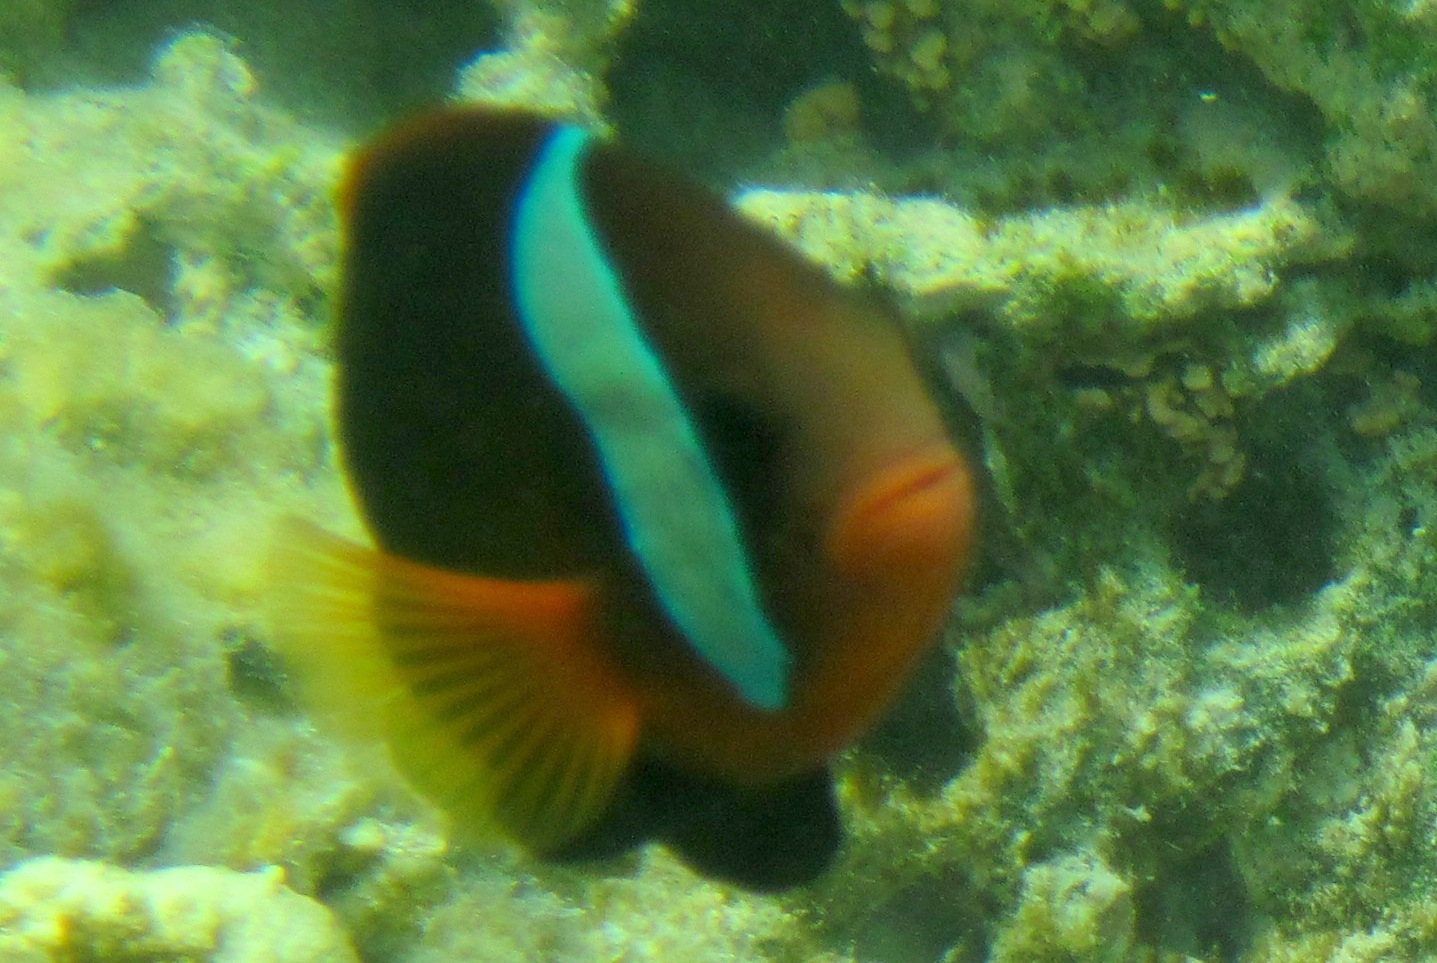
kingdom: Animalia
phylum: Chordata
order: Perciformes
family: Pomacentridae
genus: Amphiprion
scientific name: Amphiprion melanopus
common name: Black anemonefish
